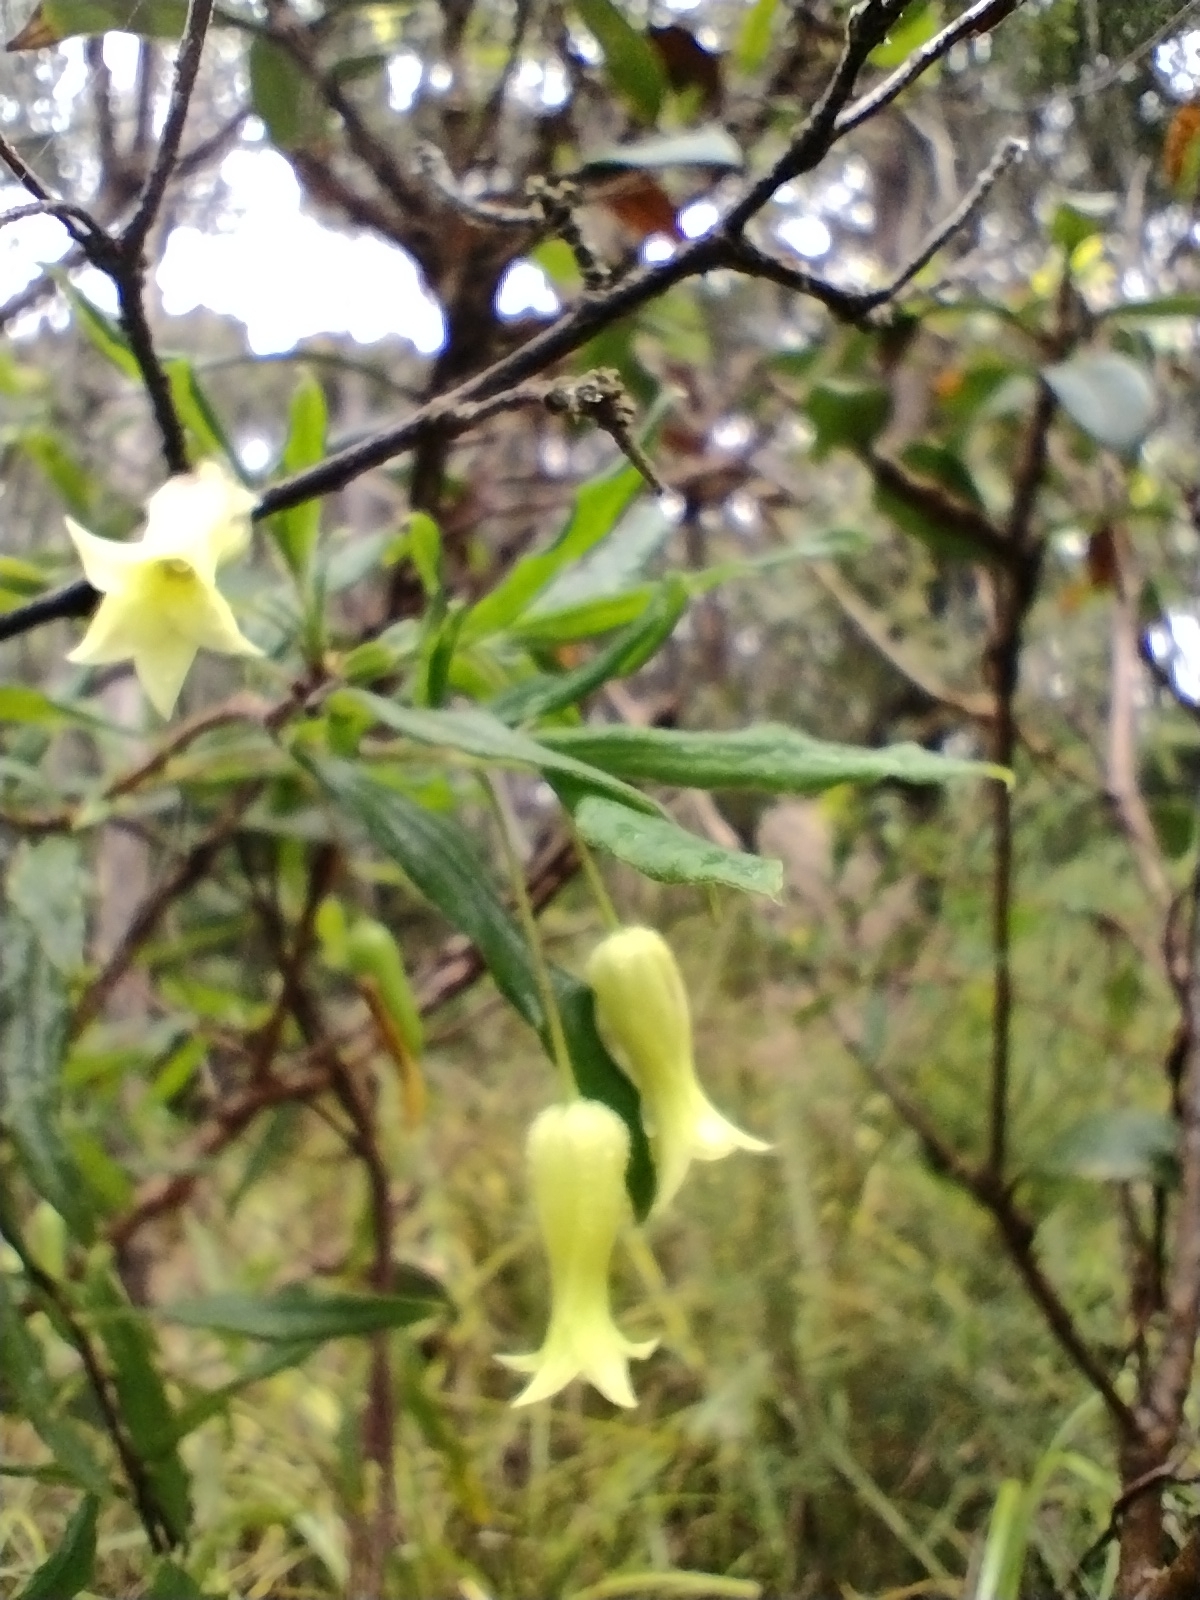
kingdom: Plantae
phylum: Tracheophyta
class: Magnoliopsida
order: Apiales
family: Pittosporaceae
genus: Billardiera
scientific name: Billardiera scandens
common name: Apple-berry
